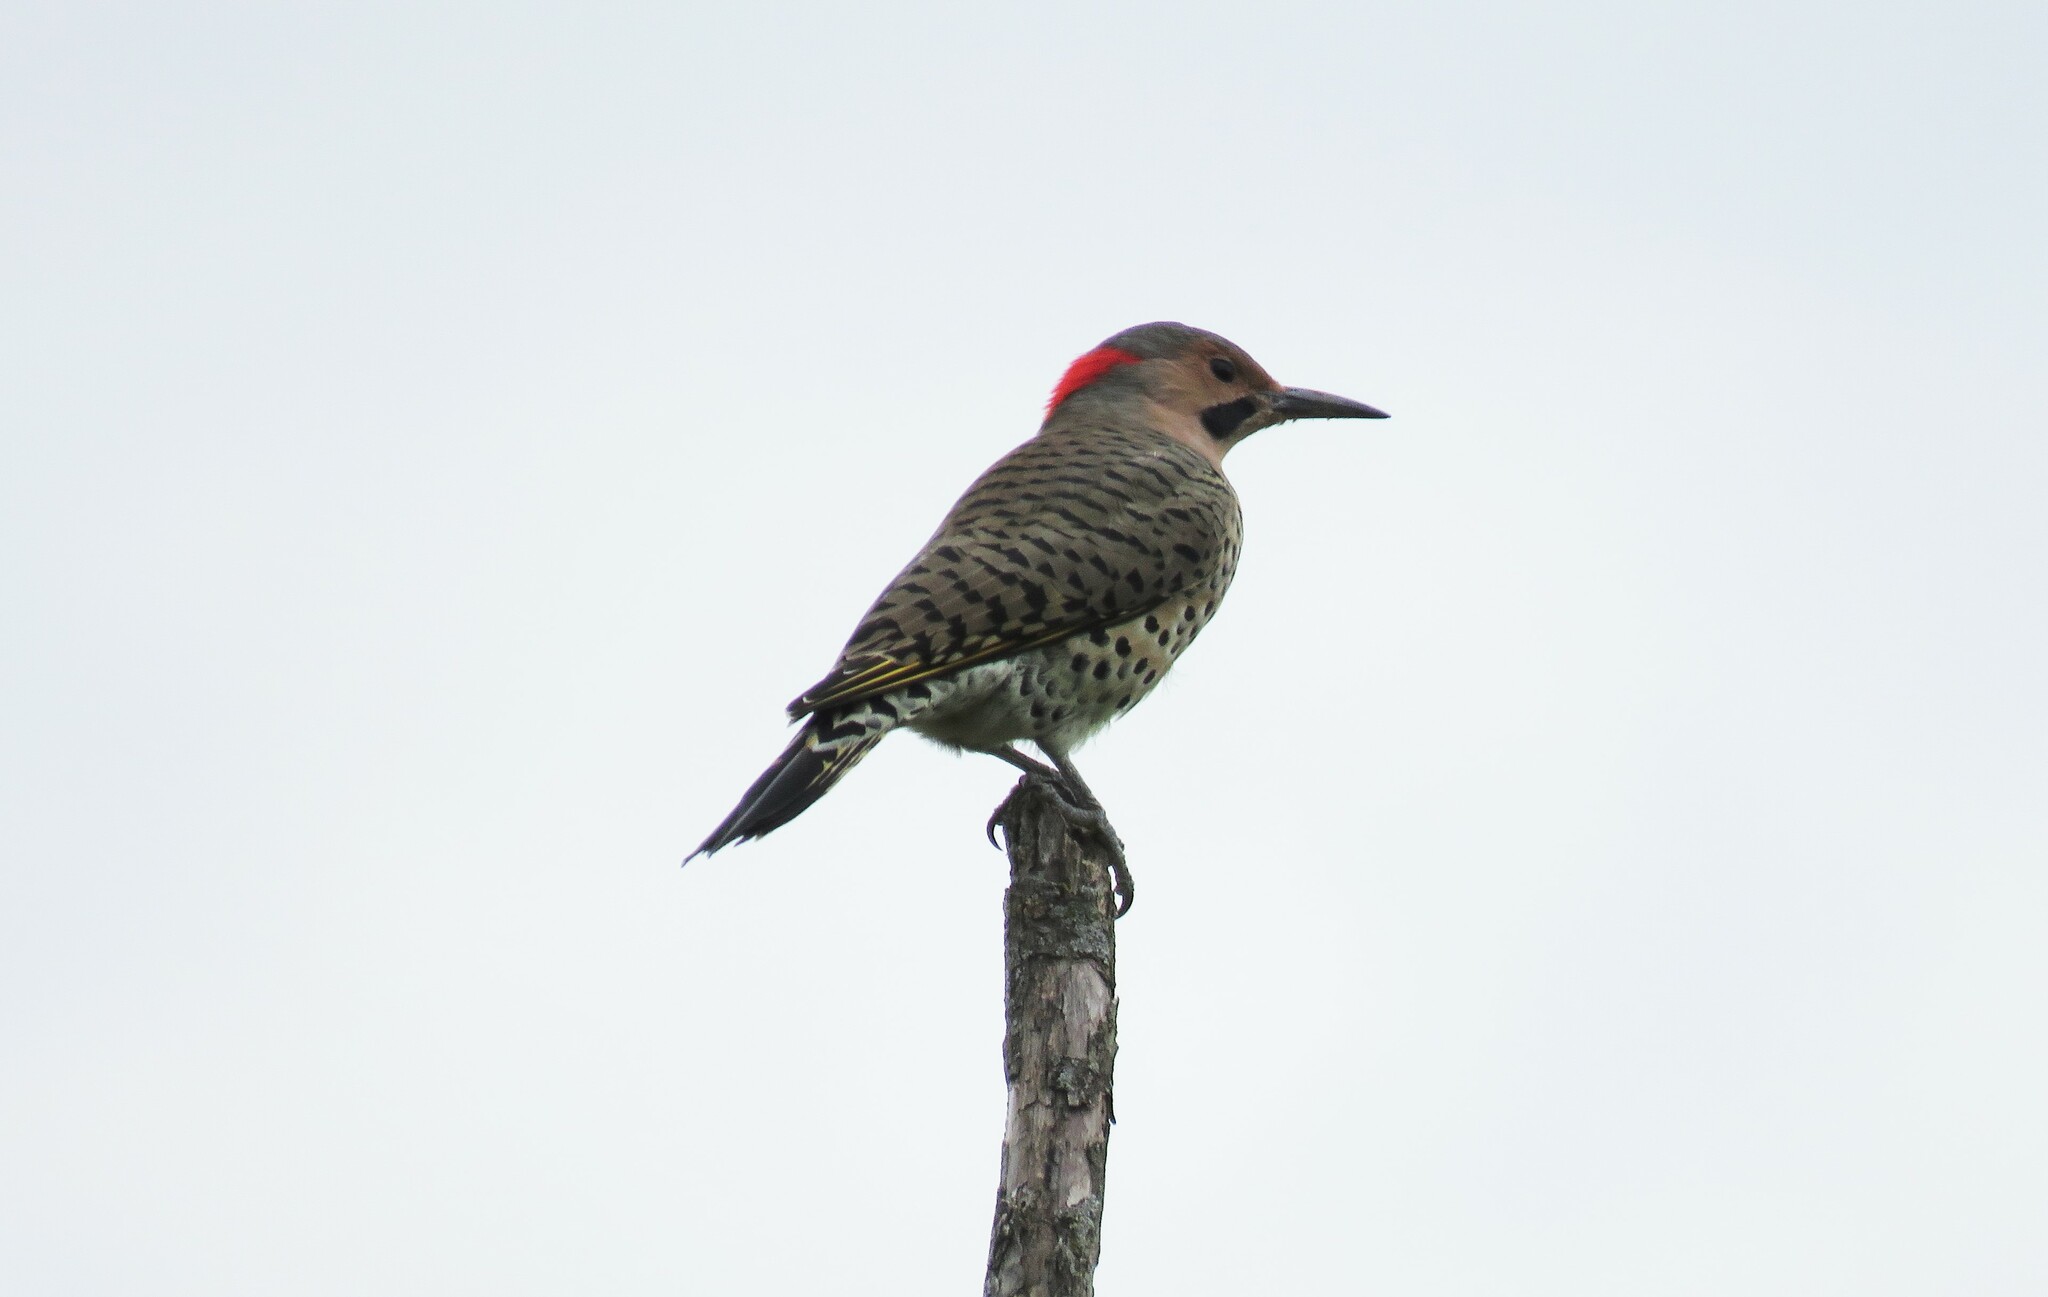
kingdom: Animalia
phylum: Chordata
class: Aves
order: Piciformes
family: Picidae
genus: Colaptes
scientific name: Colaptes auratus
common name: Northern flicker
